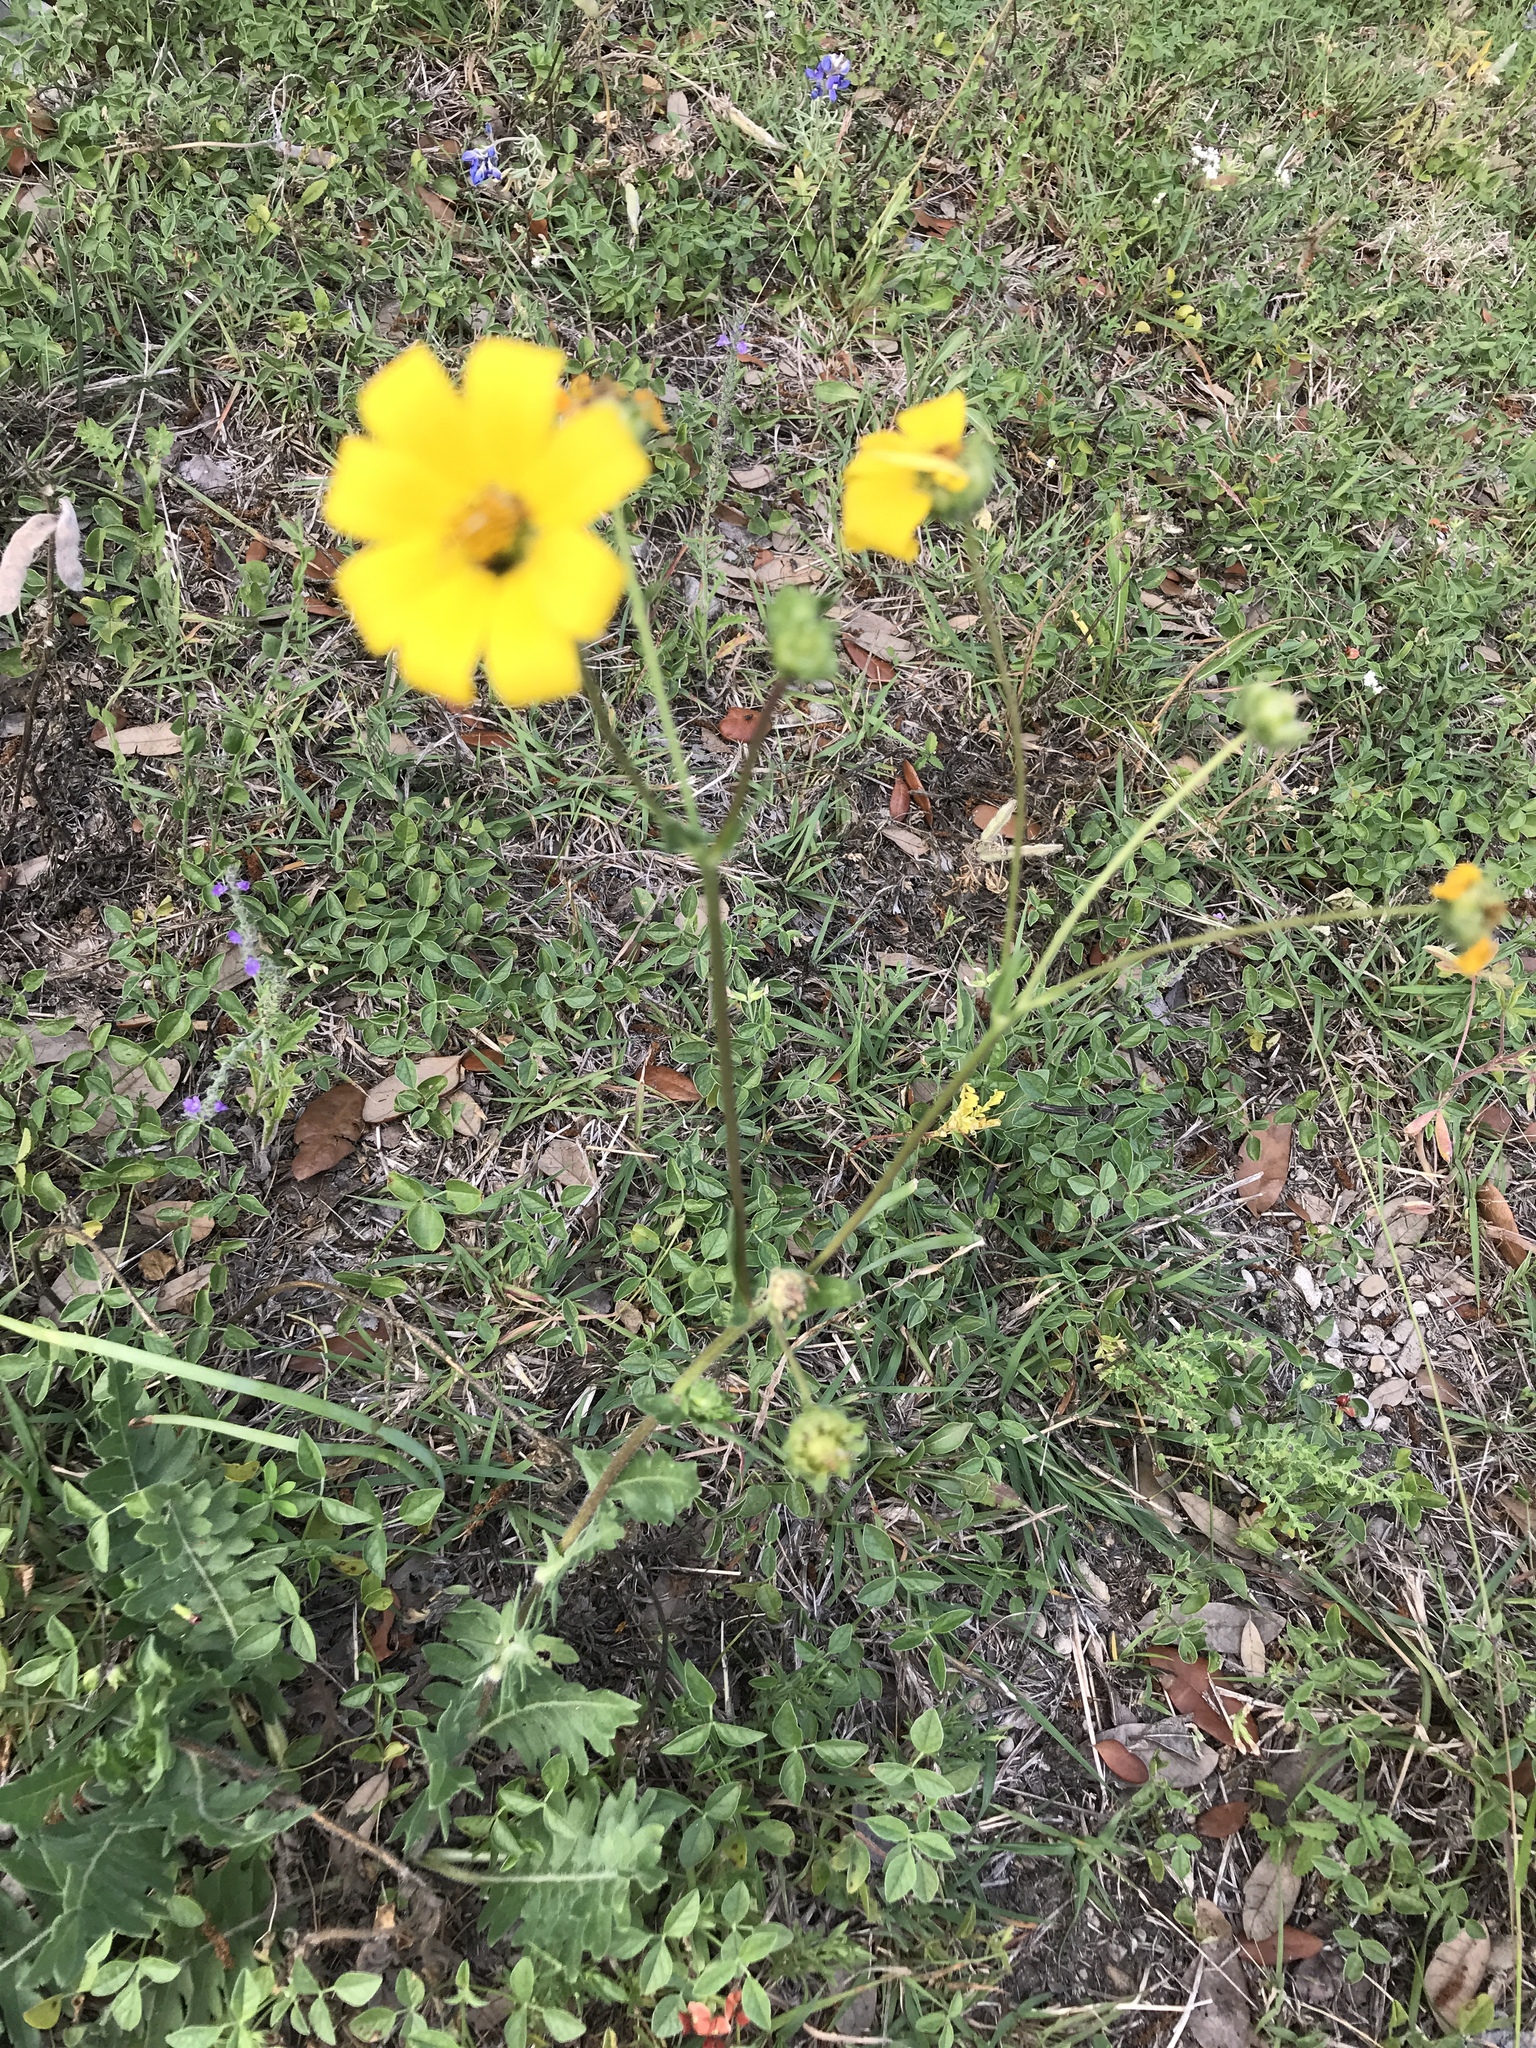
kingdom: Plantae
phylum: Tracheophyta
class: Magnoliopsida
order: Asterales
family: Asteraceae
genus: Engelmannia
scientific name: Engelmannia peristenia
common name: Engelmann's daisy
